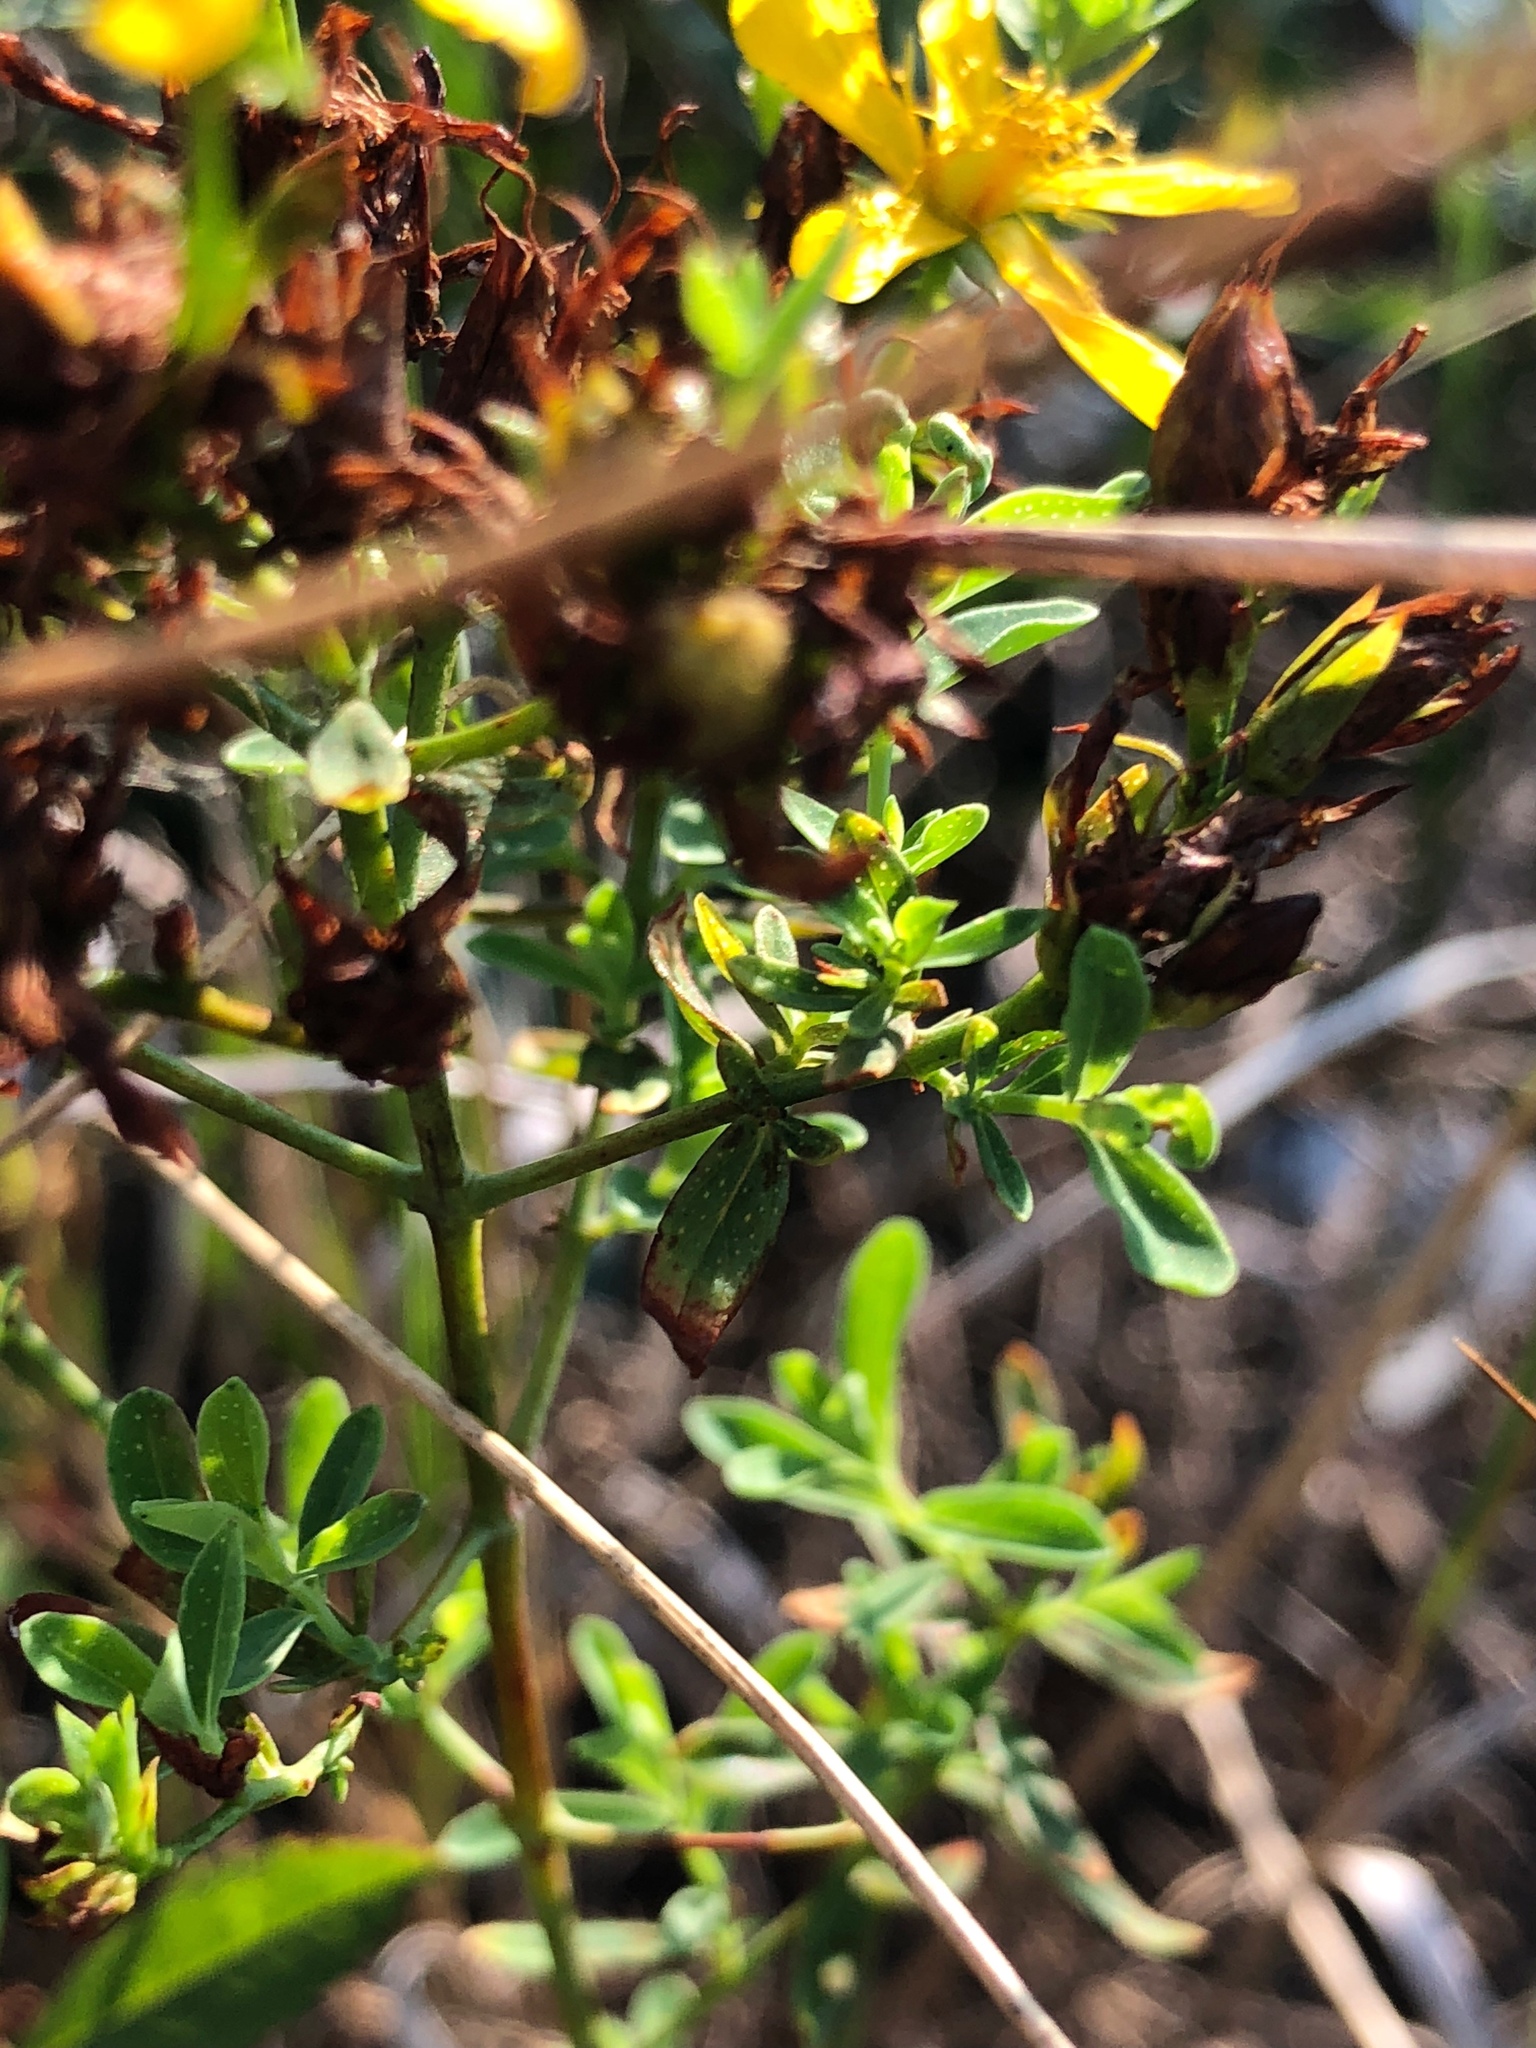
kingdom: Plantae
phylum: Tracheophyta
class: Magnoliopsida
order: Malpighiales
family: Hypericaceae
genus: Hypericum
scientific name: Hypericum perforatum
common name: Common st. johnswort
